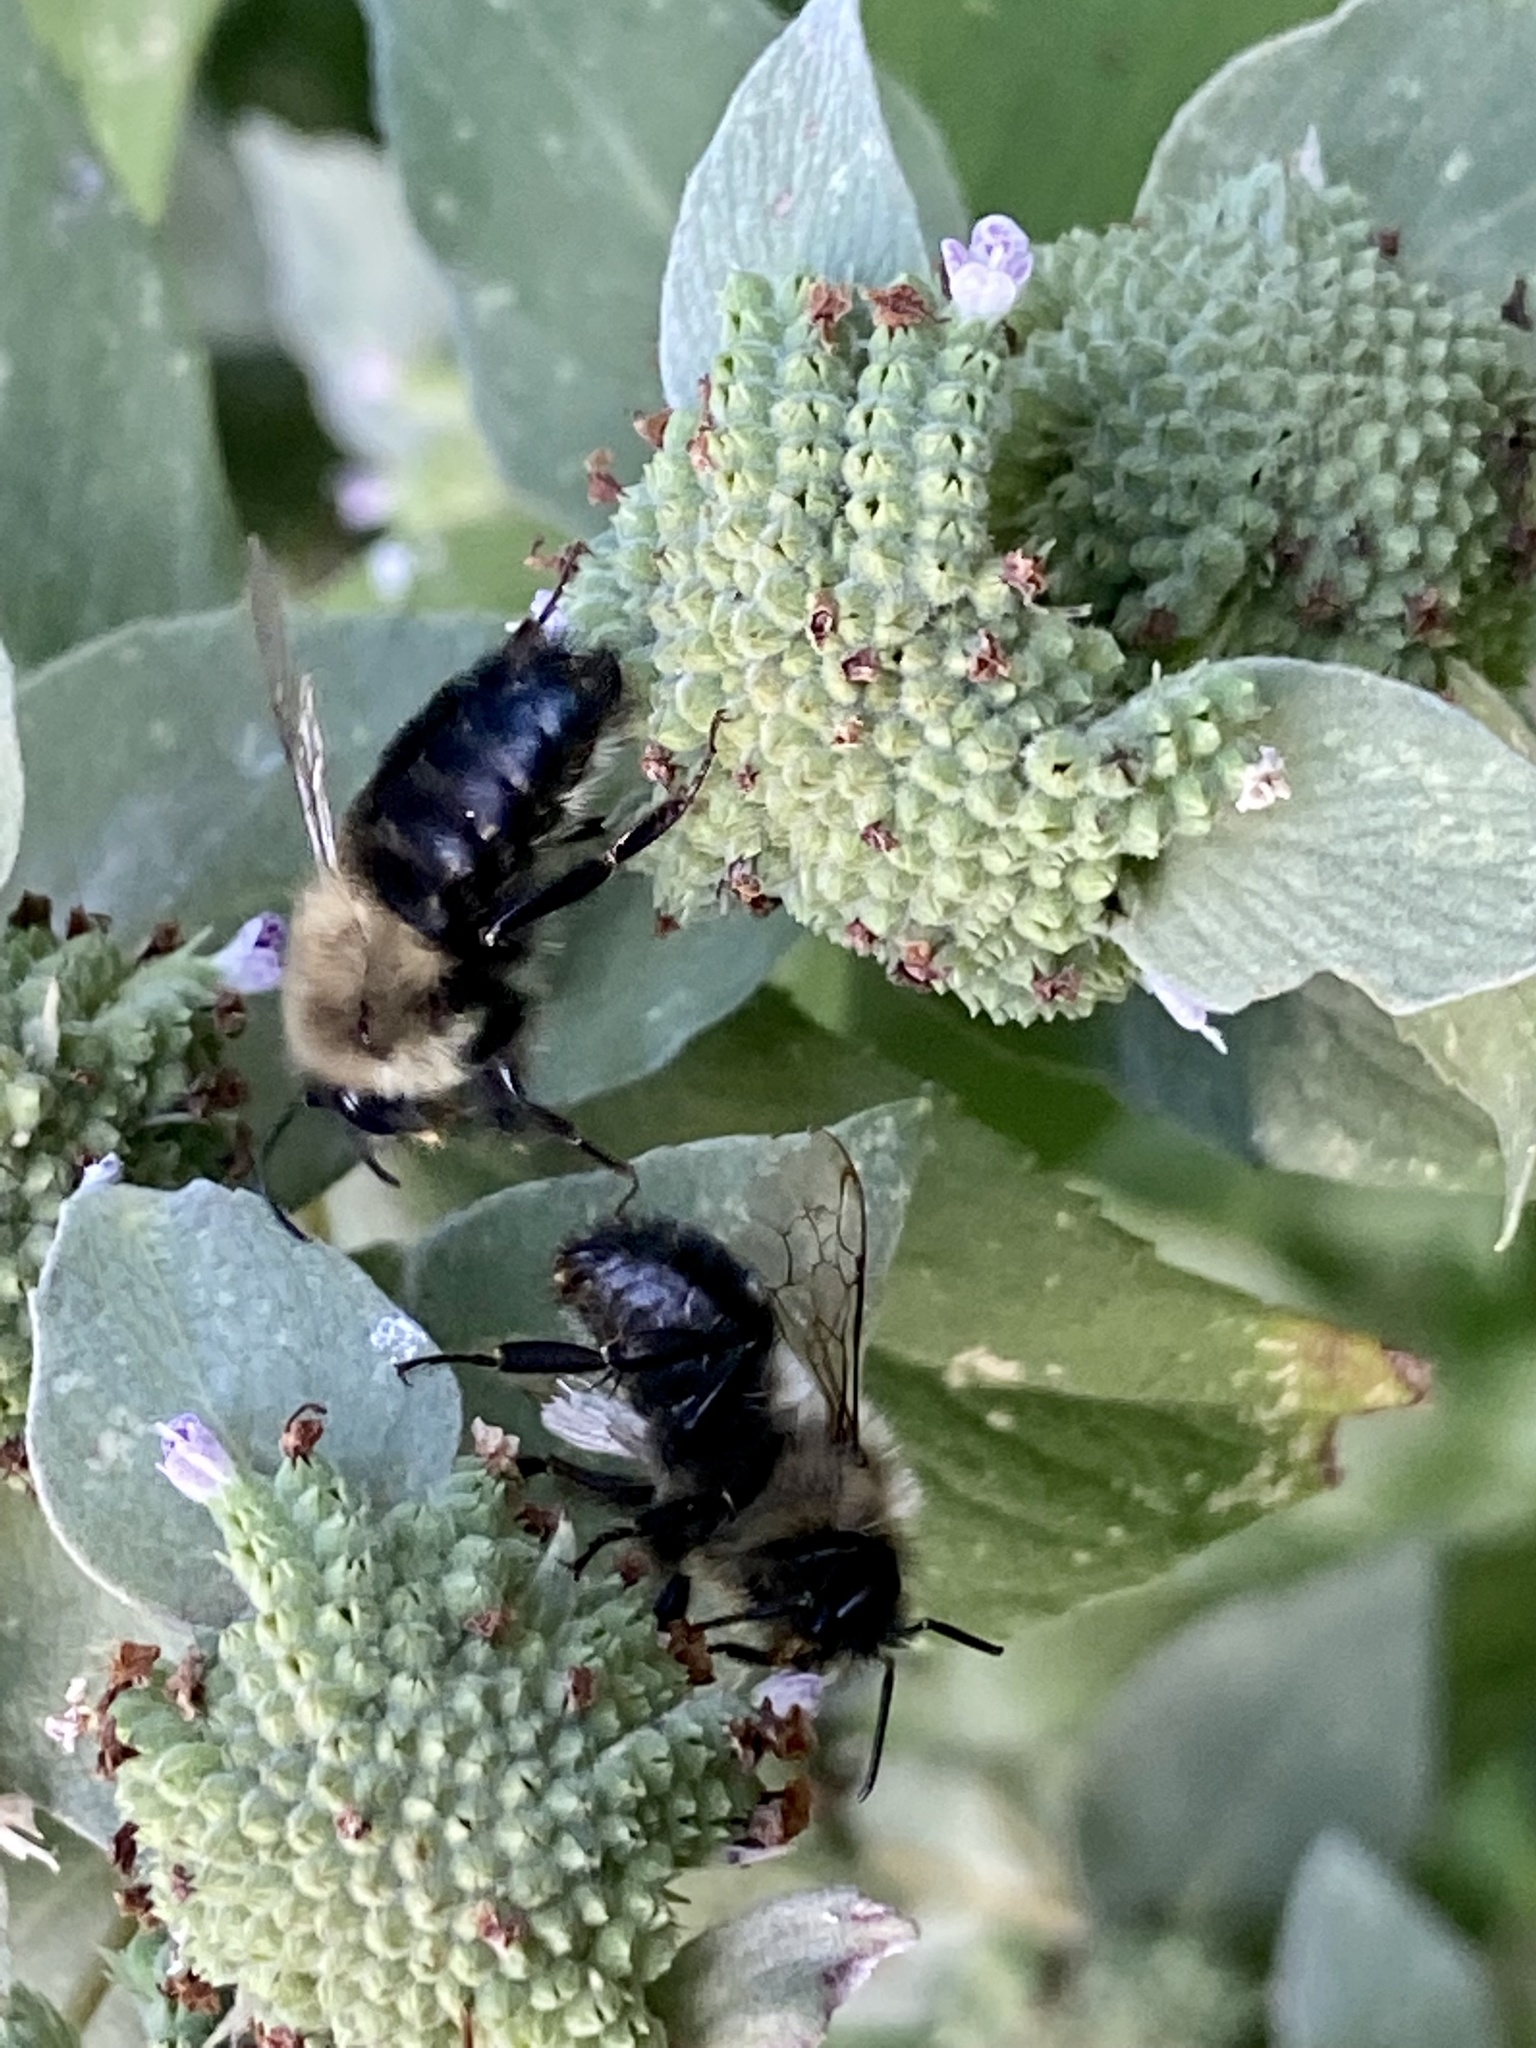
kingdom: Animalia
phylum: Arthropoda
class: Insecta
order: Hymenoptera
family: Apidae
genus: Bombus
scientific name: Bombus impatiens
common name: Common eastern bumble bee
